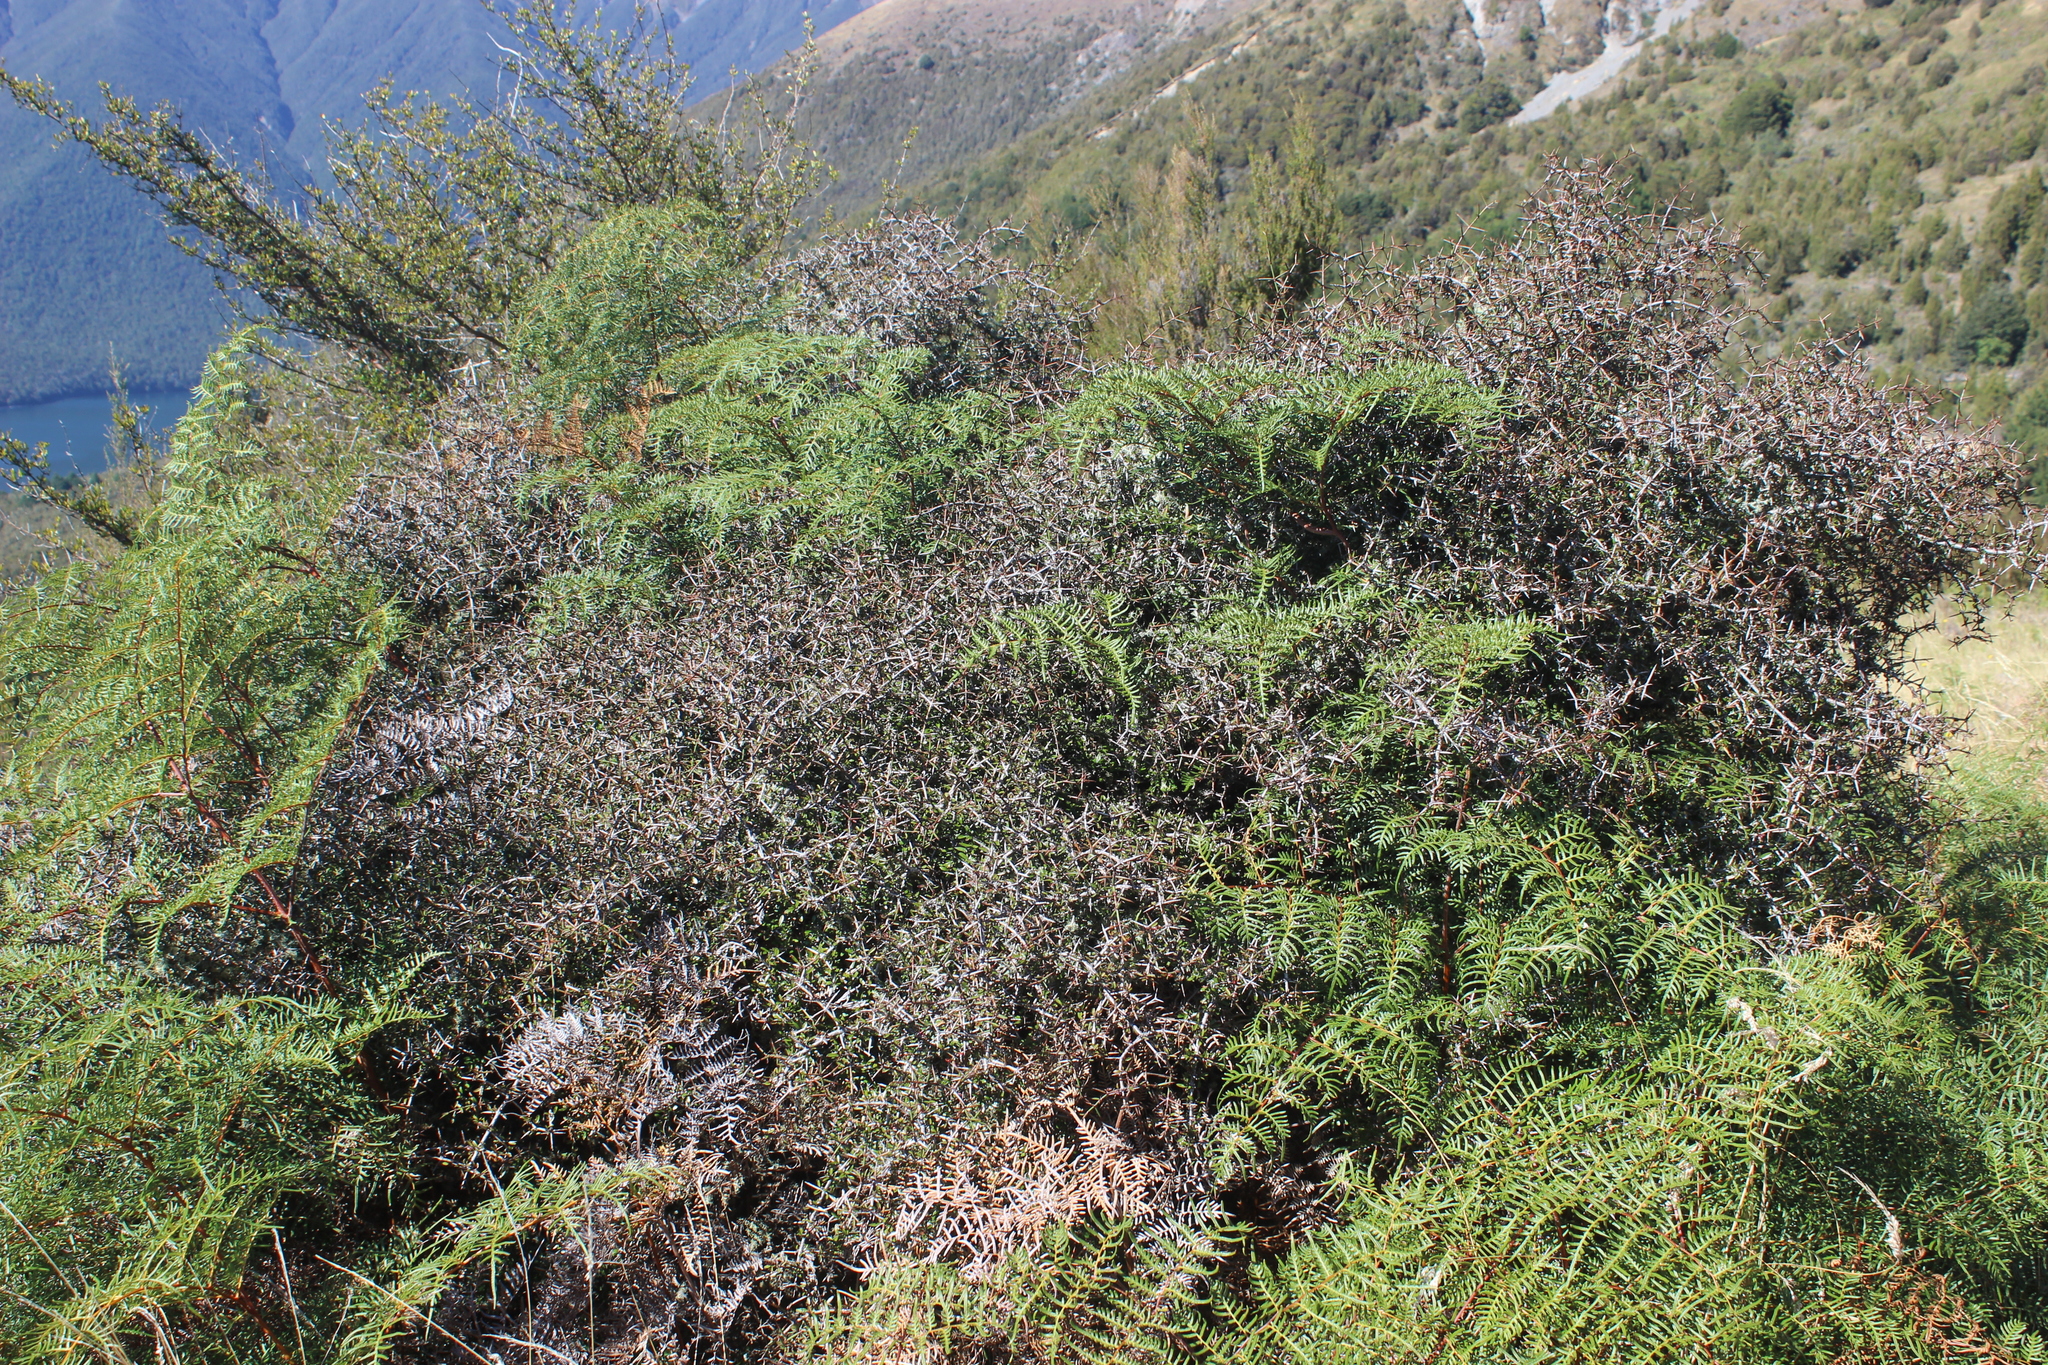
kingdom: Plantae
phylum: Tracheophyta
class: Polypodiopsida
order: Polypodiales
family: Dennstaedtiaceae
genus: Pteridium
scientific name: Pteridium esculentum
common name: Bracken fern
